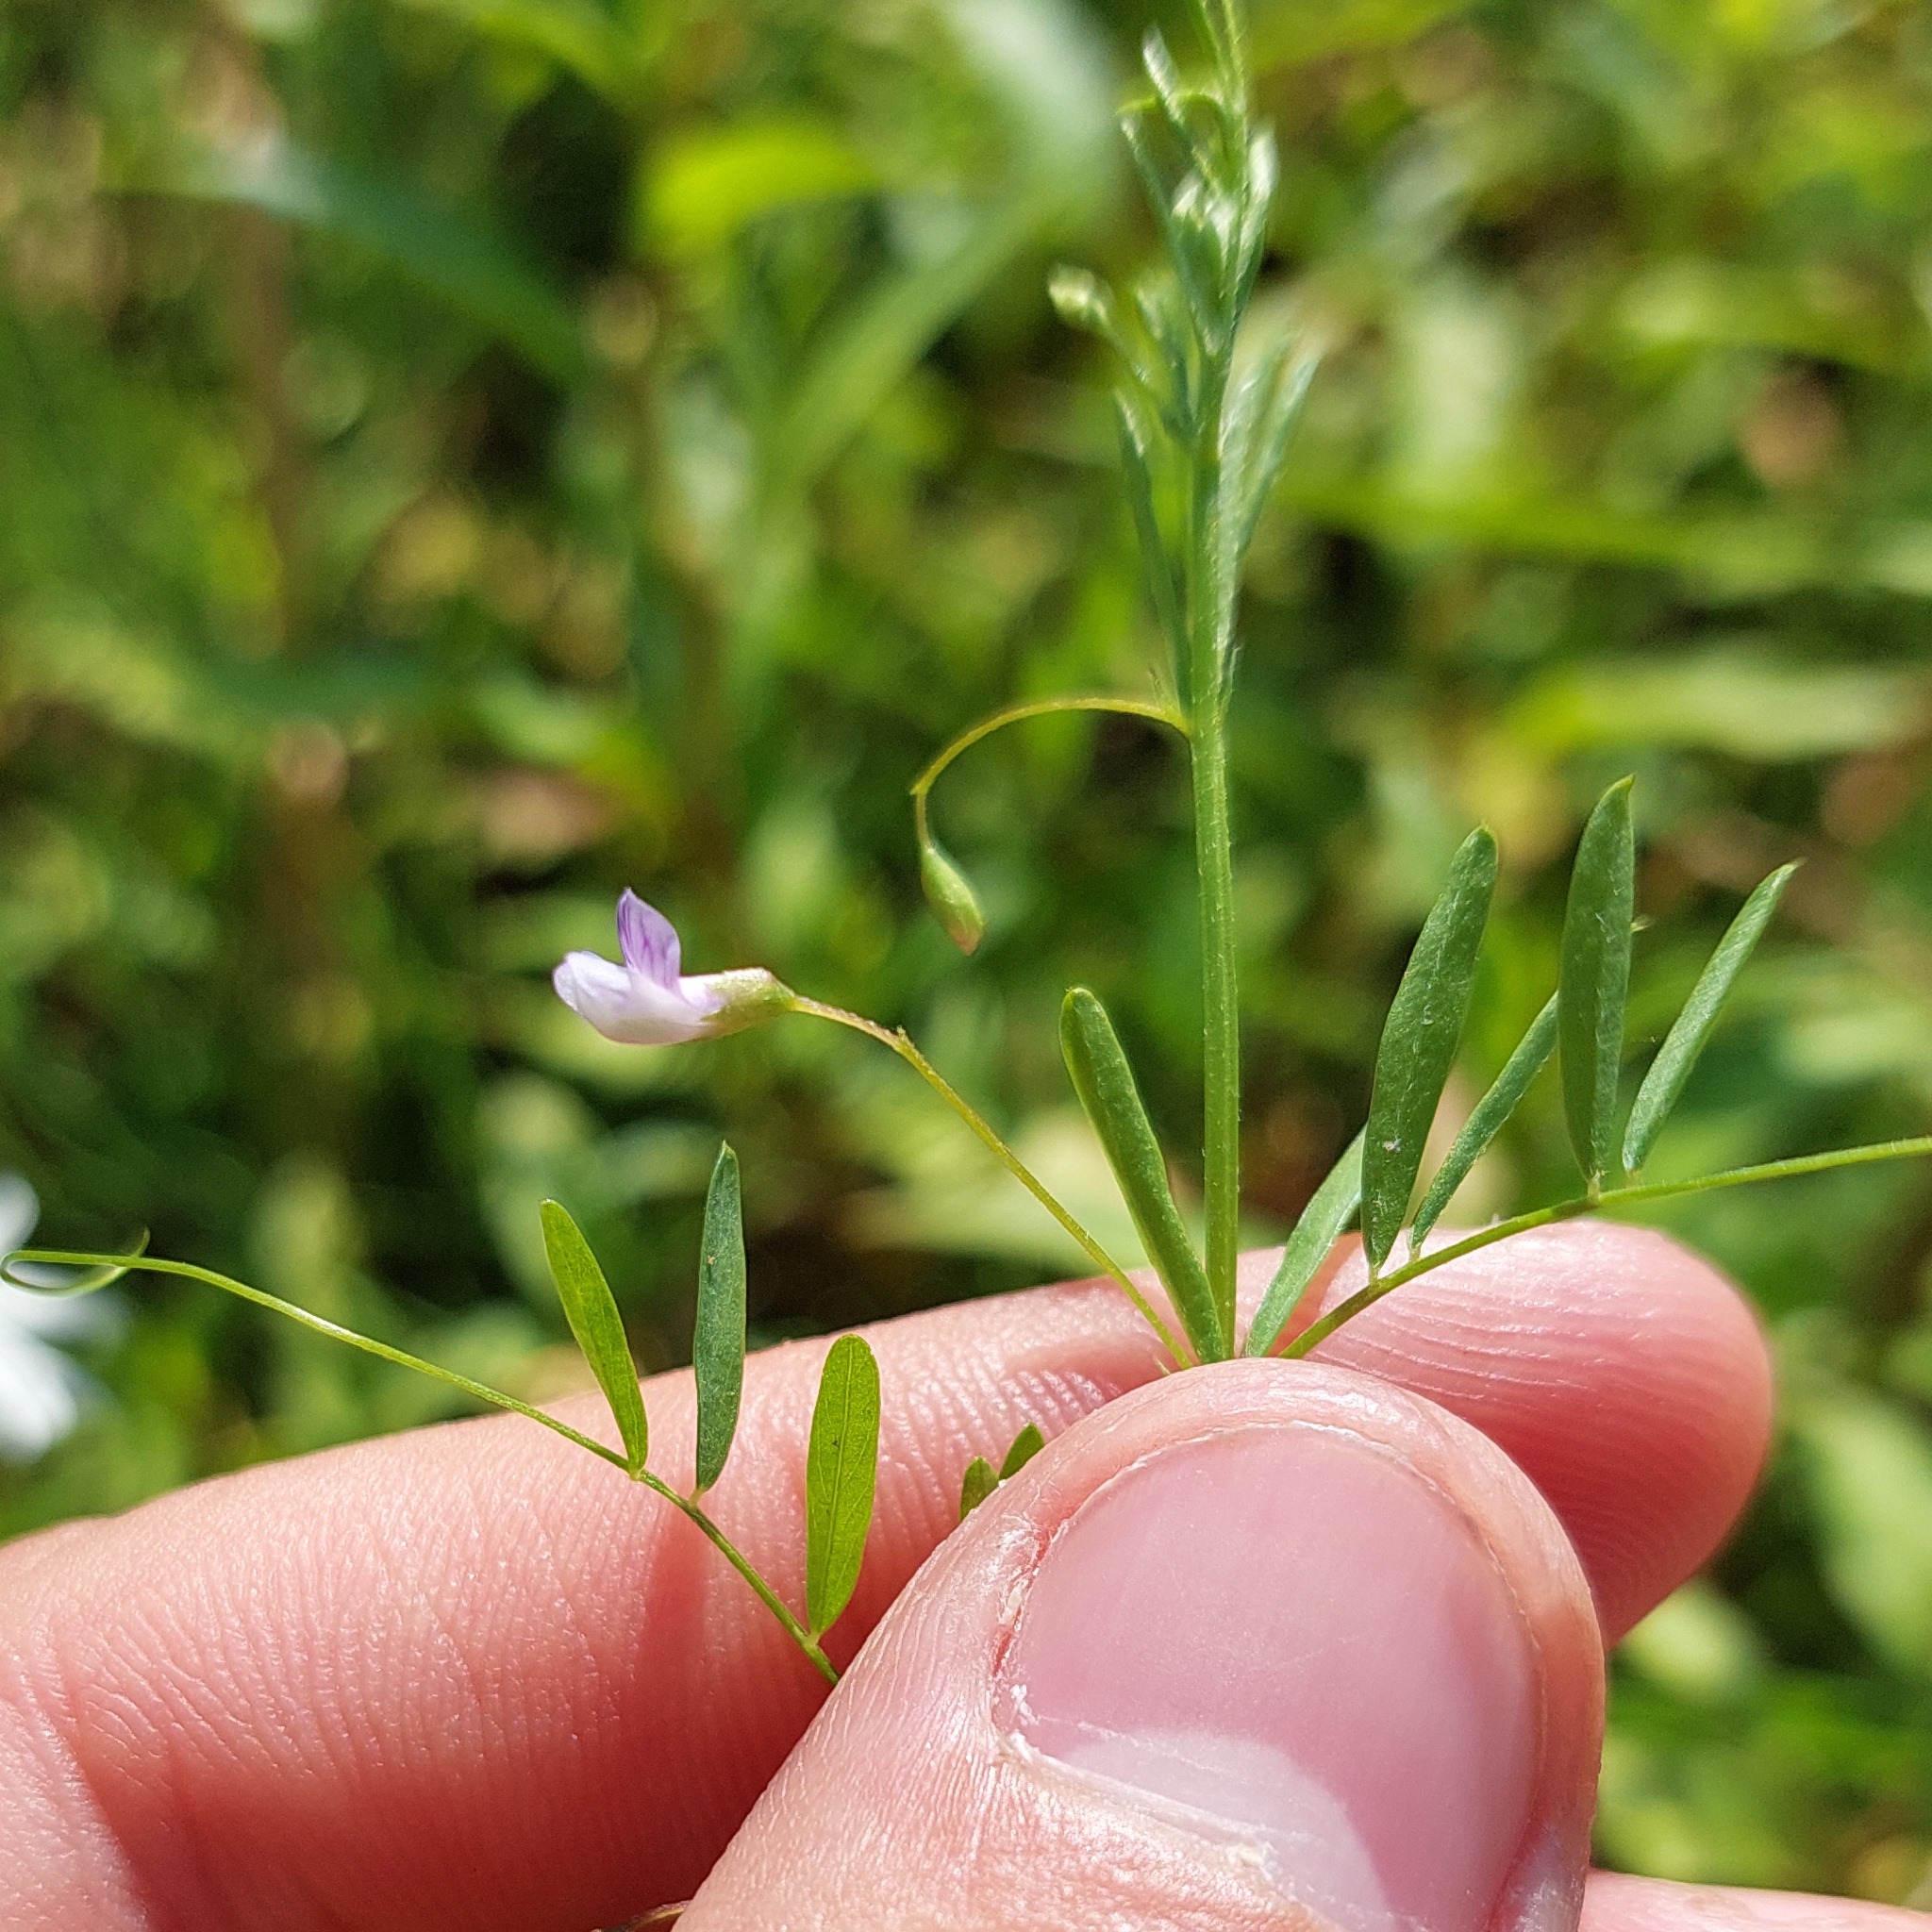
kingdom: Plantae
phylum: Tracheophyta
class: Magnoliopsida
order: Fabales
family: Fabaceae
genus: Vicia
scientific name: Vicia tetrasperma
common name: Smooth tare
